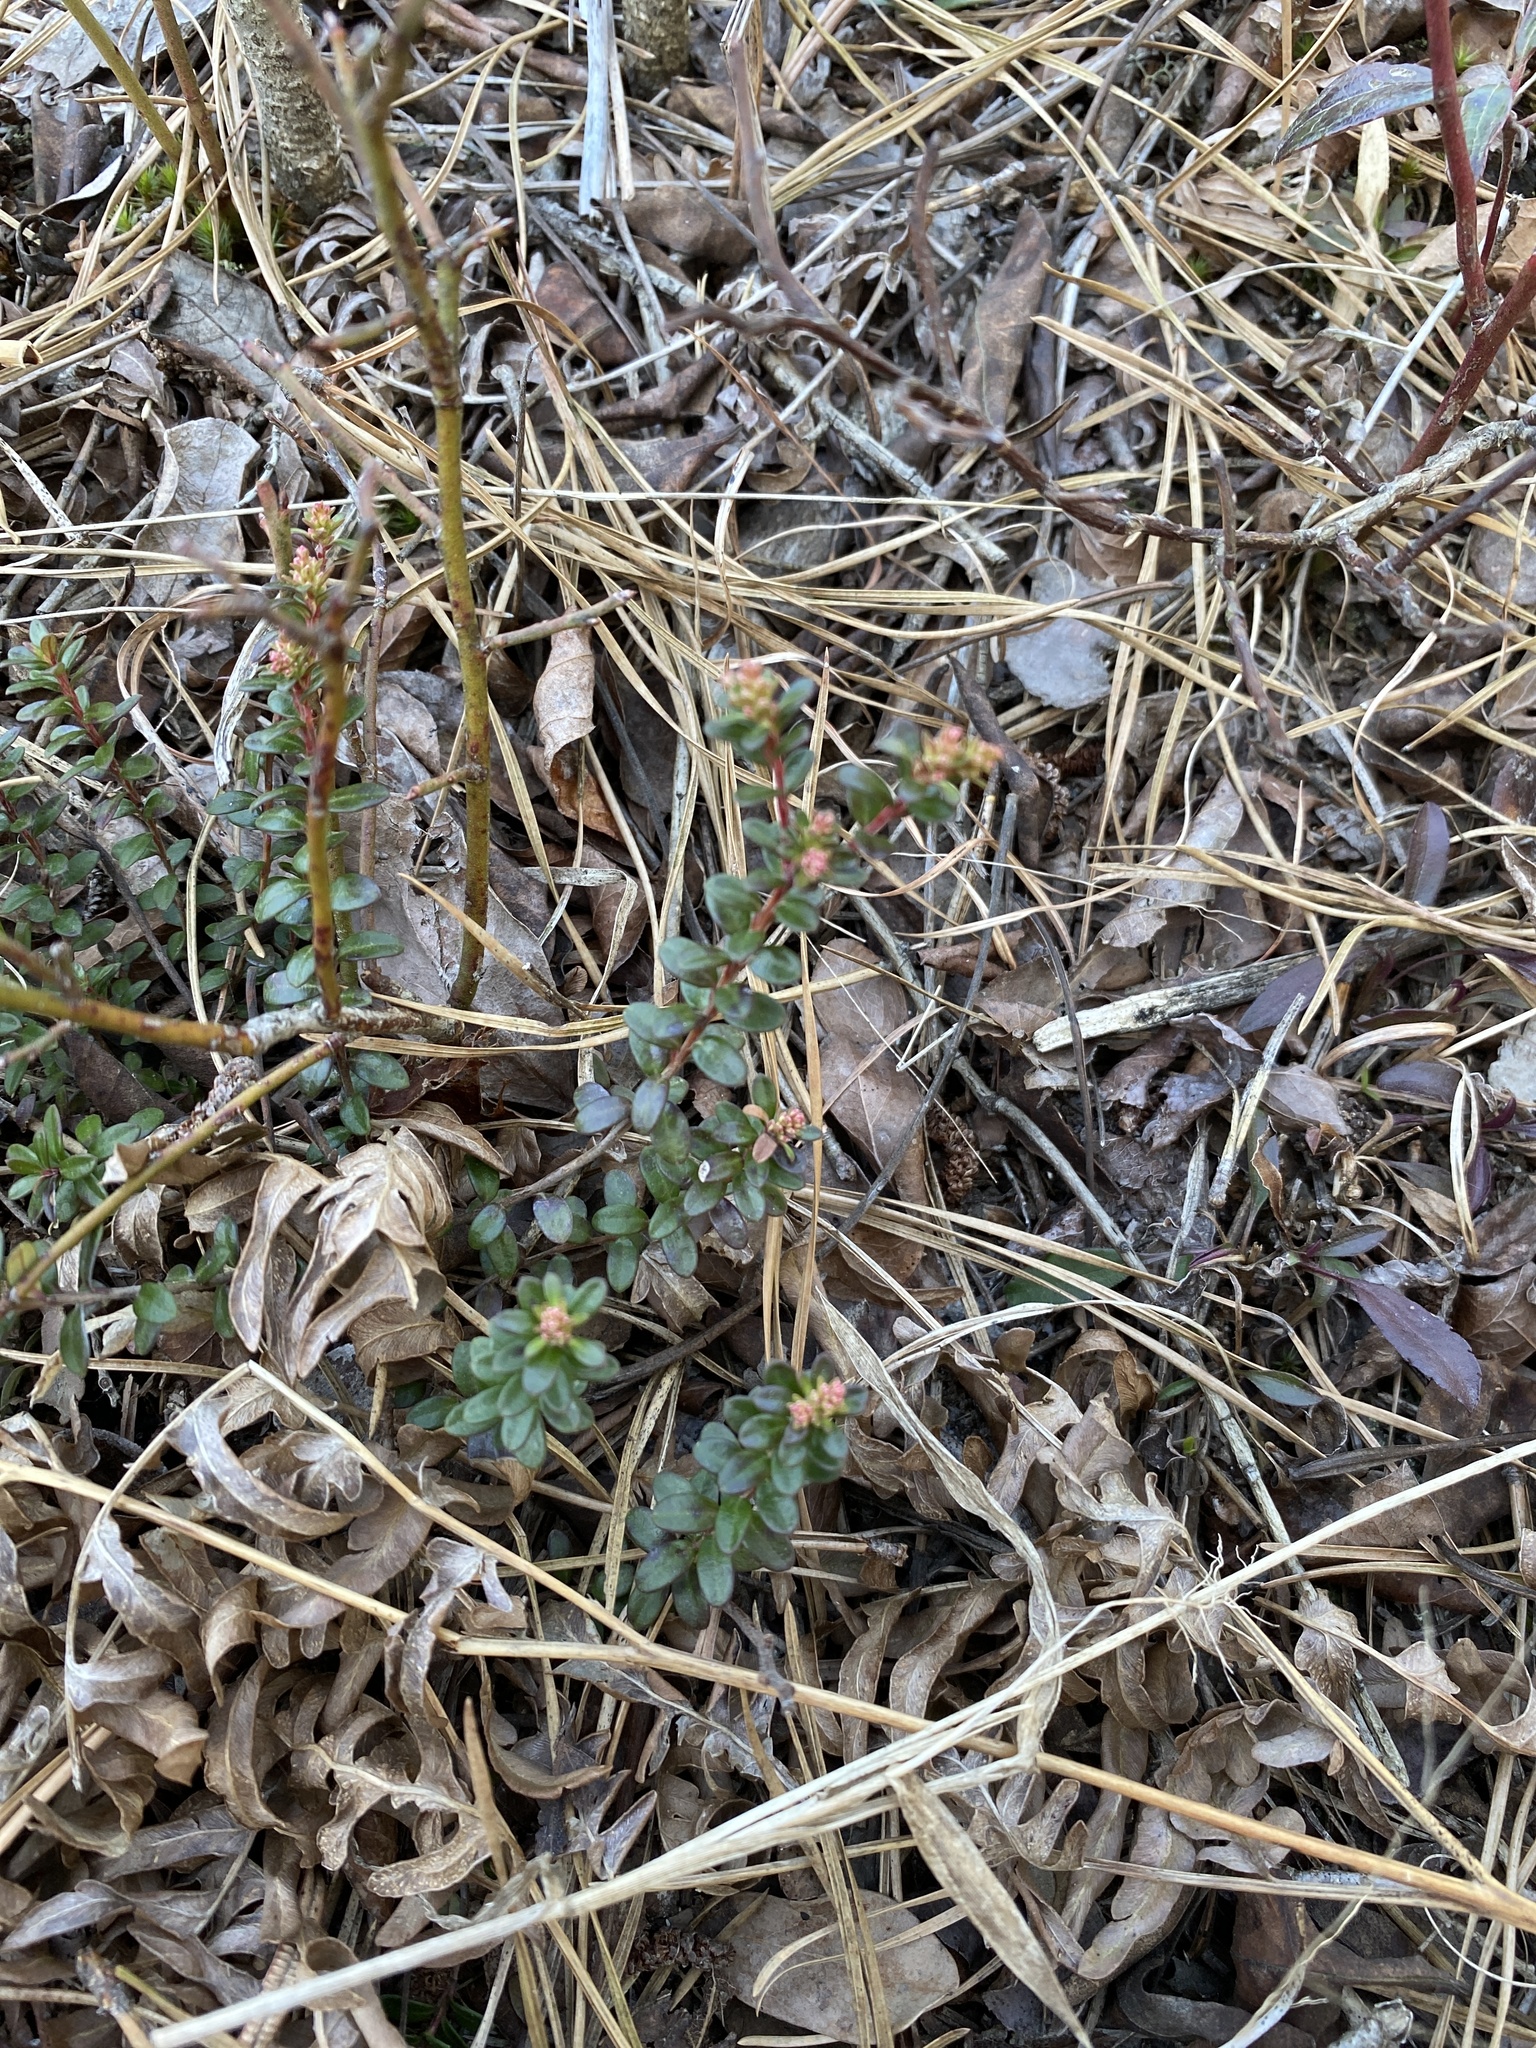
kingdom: Plantae
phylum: Tracheophyta
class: Magnoliopsida
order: Ericales
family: Ericaceae
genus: Kalmia
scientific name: Kalmia buxifolia
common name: Sandmyrtle
